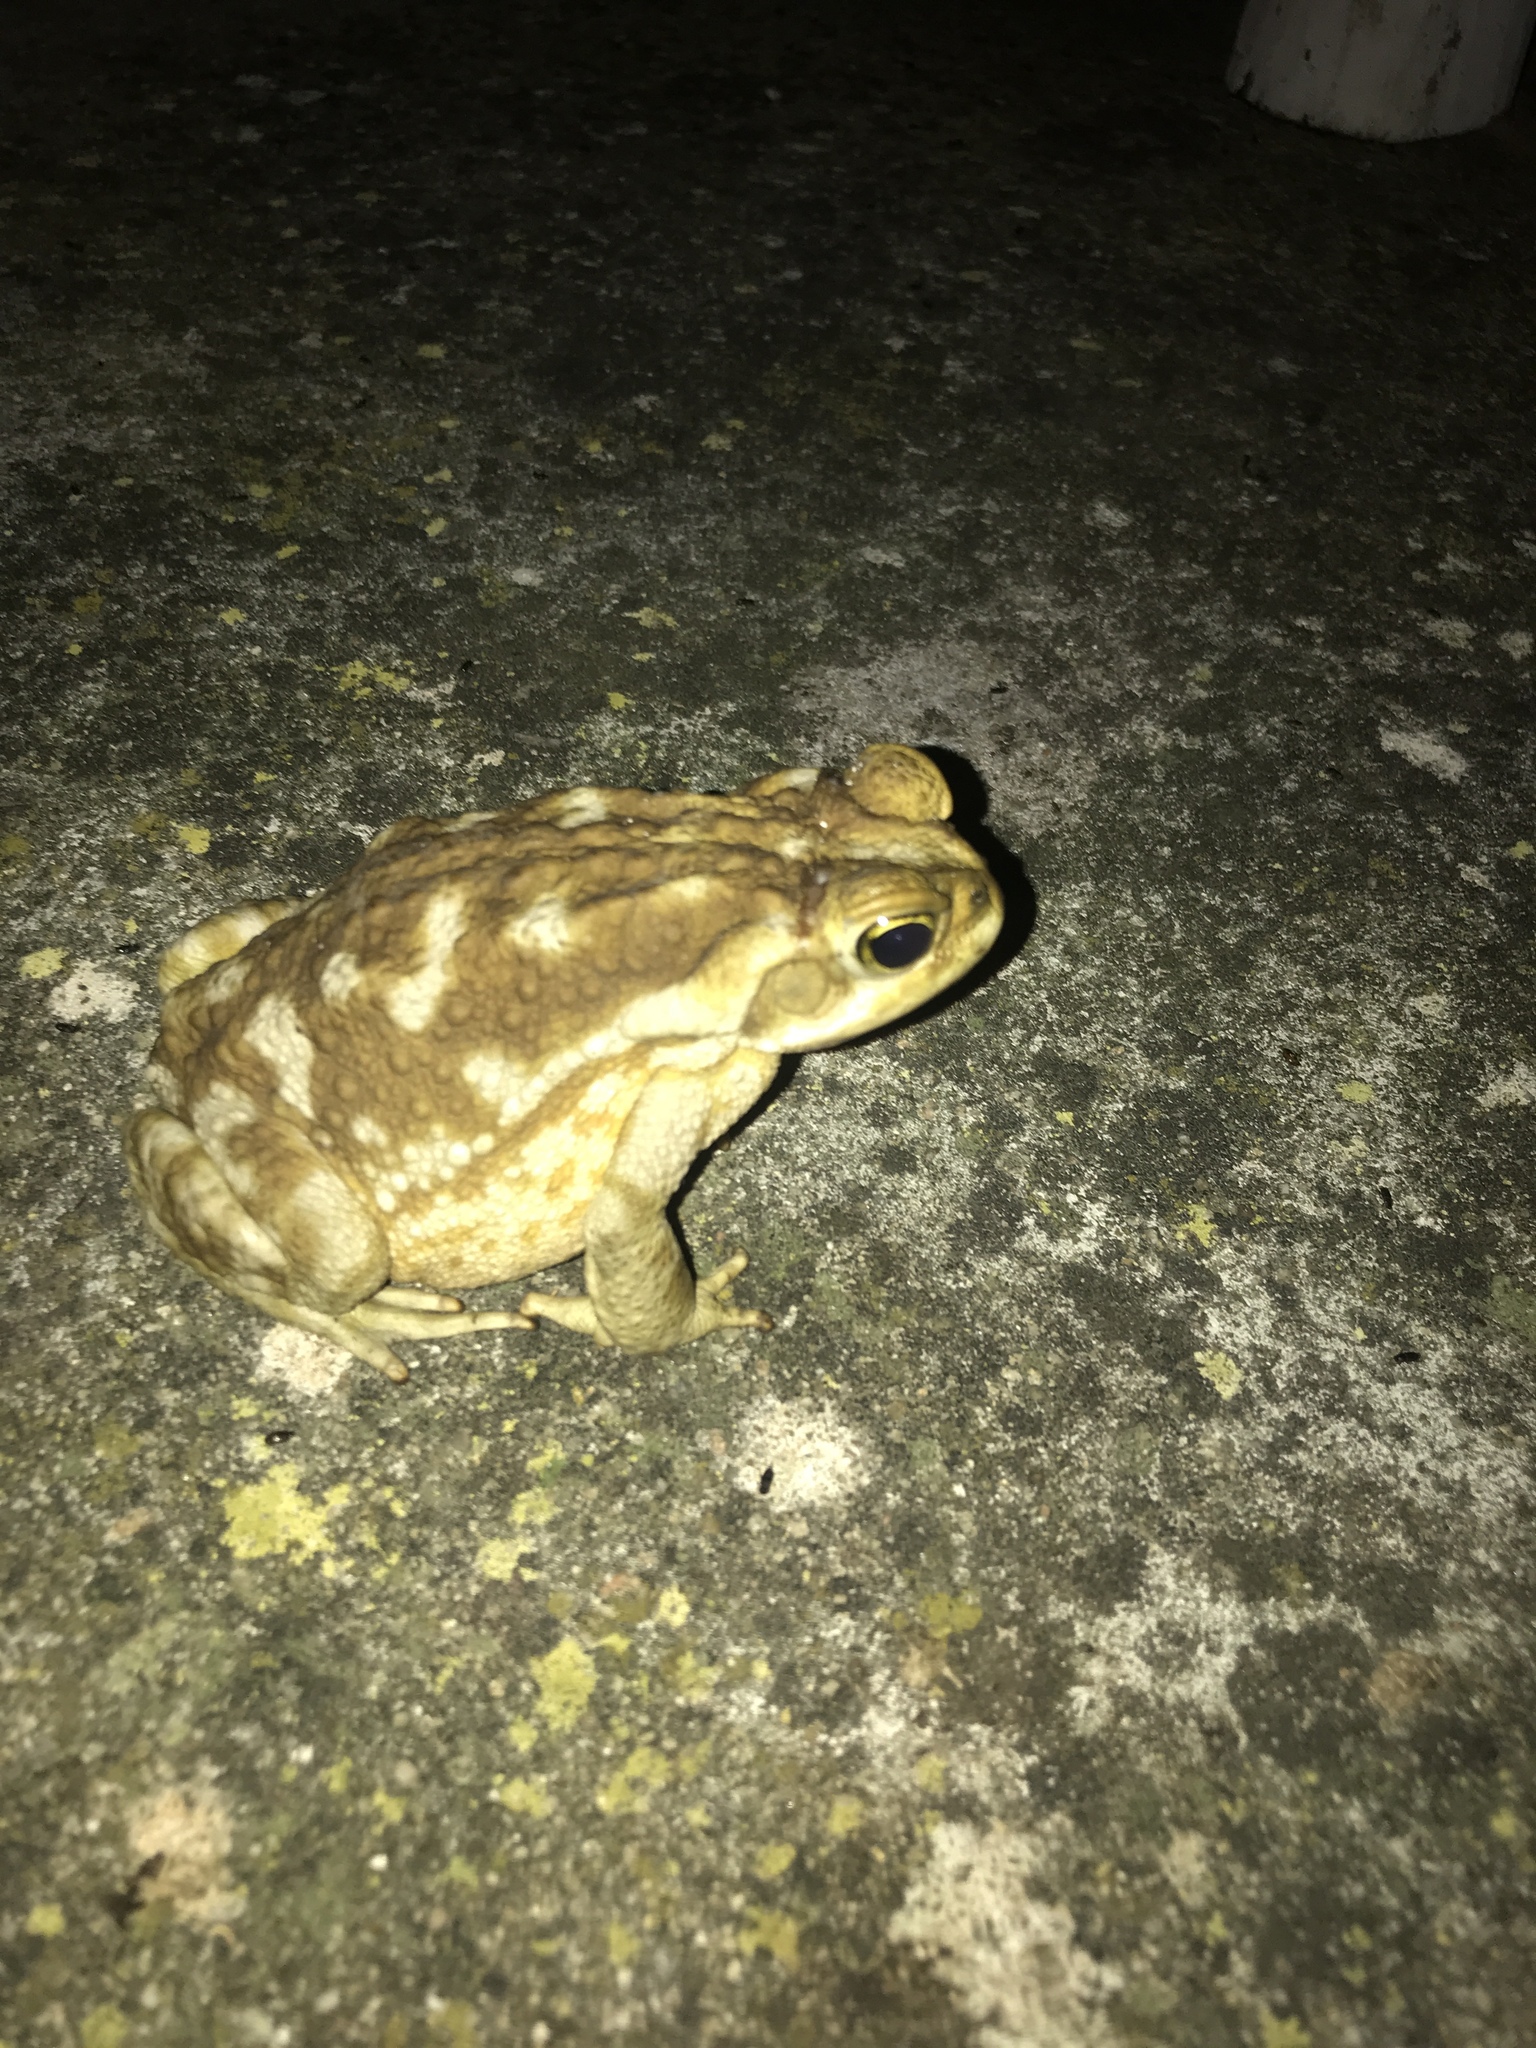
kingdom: Animalia
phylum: Chordata
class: Amphibia
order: Anura
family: Bufonidae
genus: Rhinella
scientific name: Rhinella arenarum
